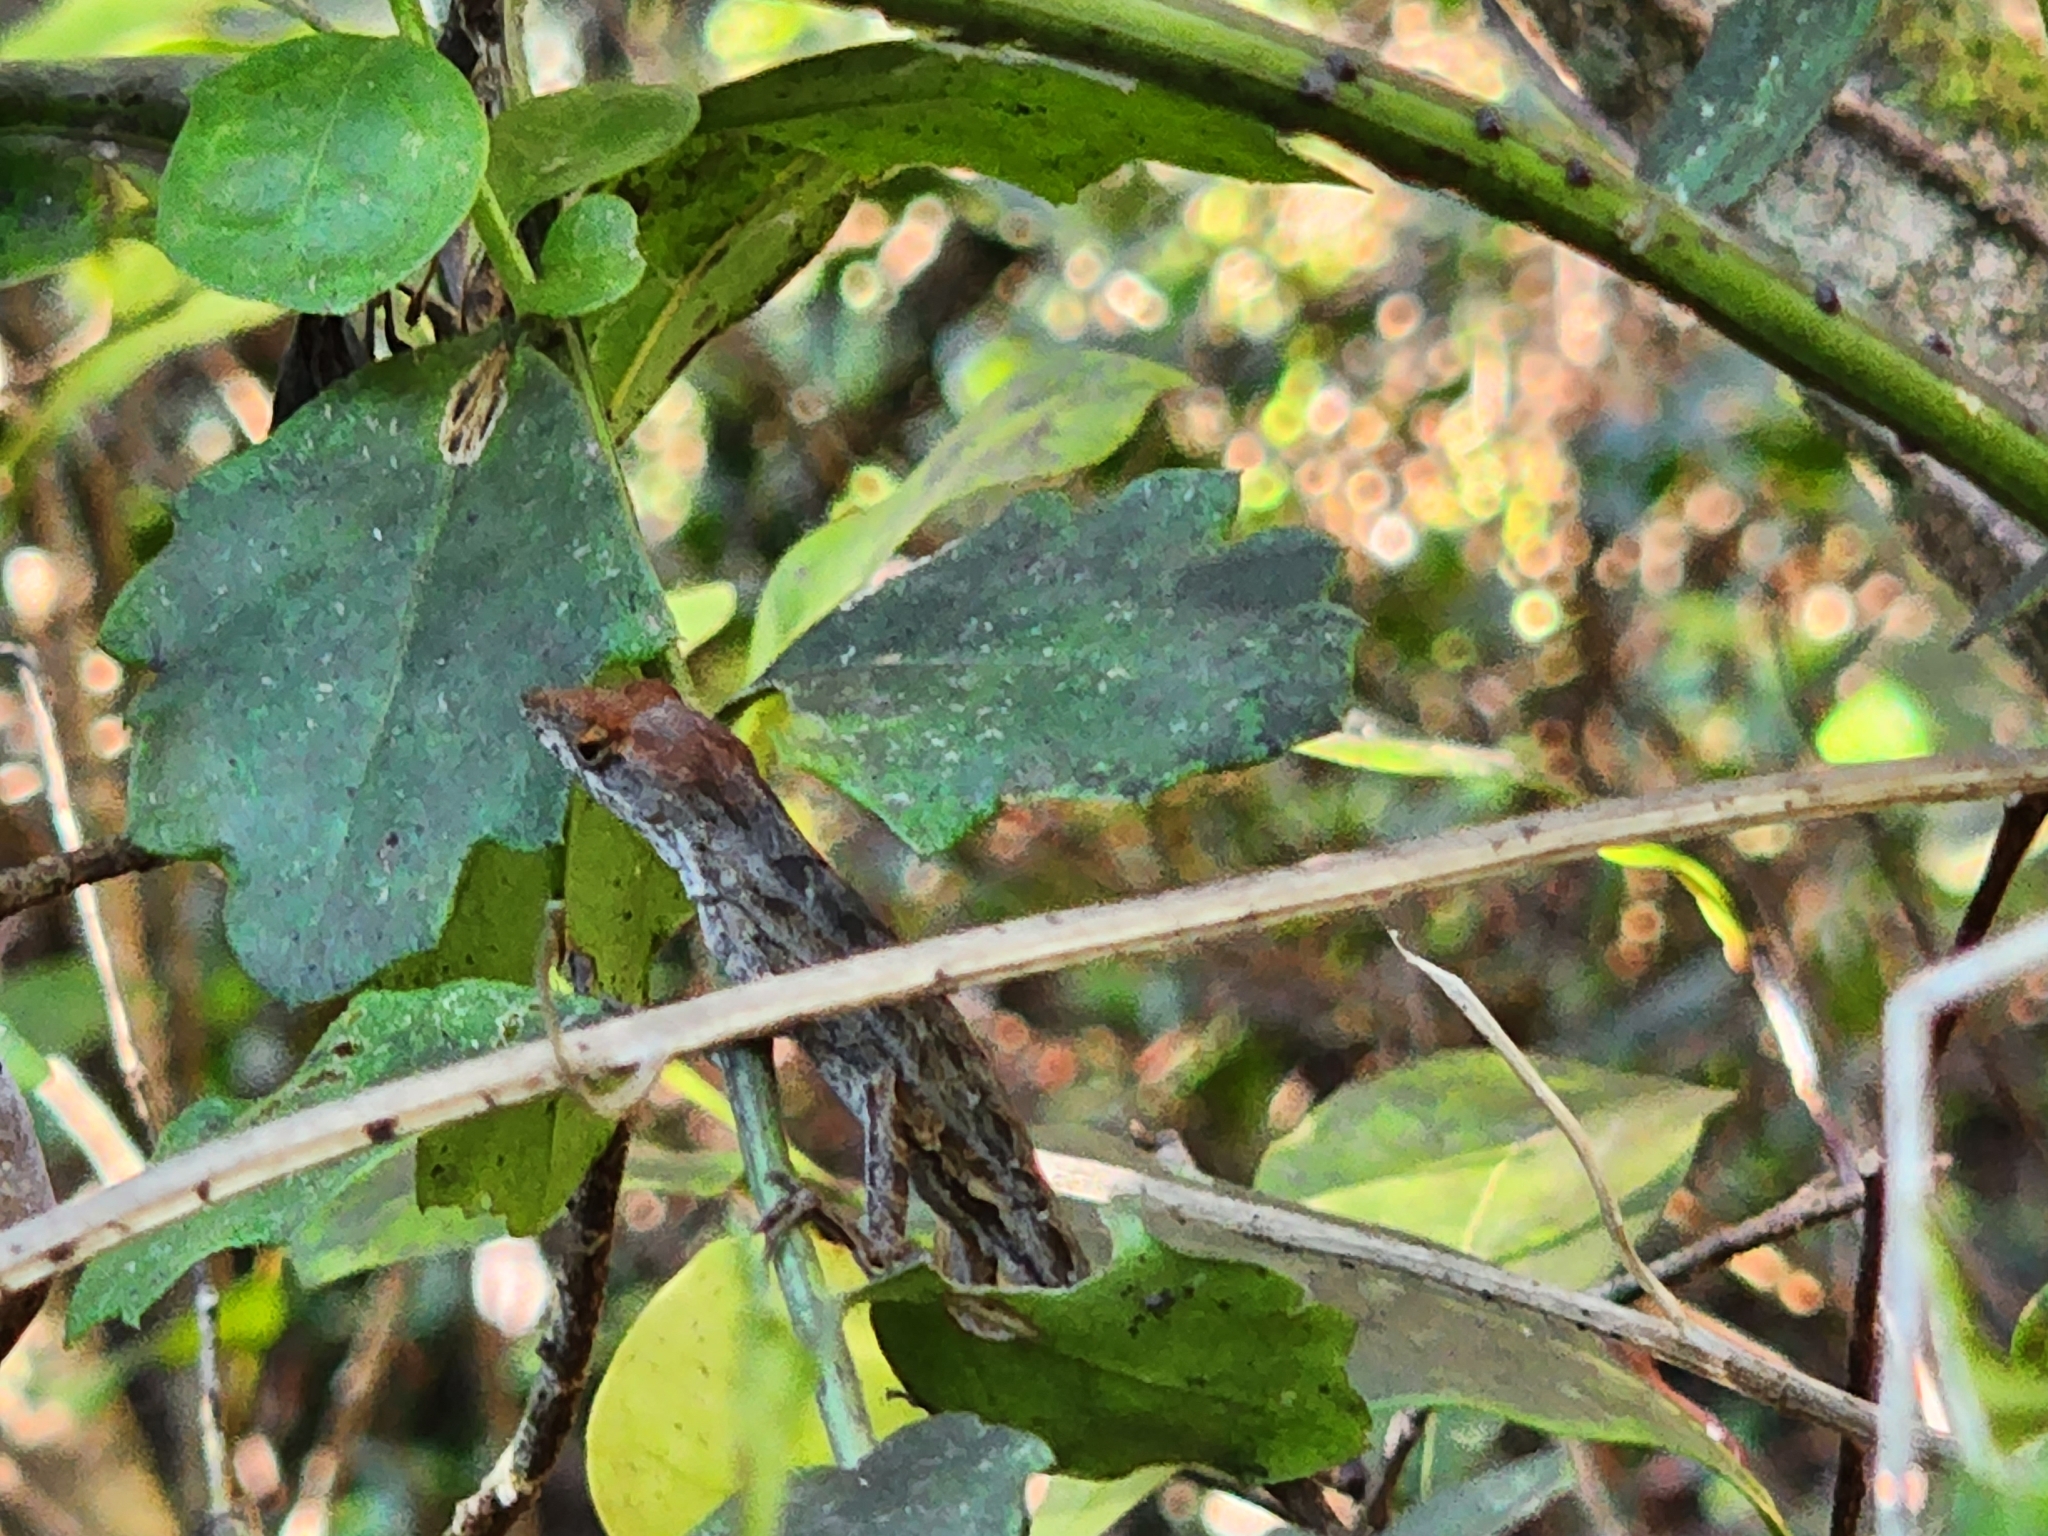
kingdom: Animalia
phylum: Chordata
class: Squamata
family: Dactyloidae
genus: Anolis
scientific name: Anolis sagrei
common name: Brown anole
